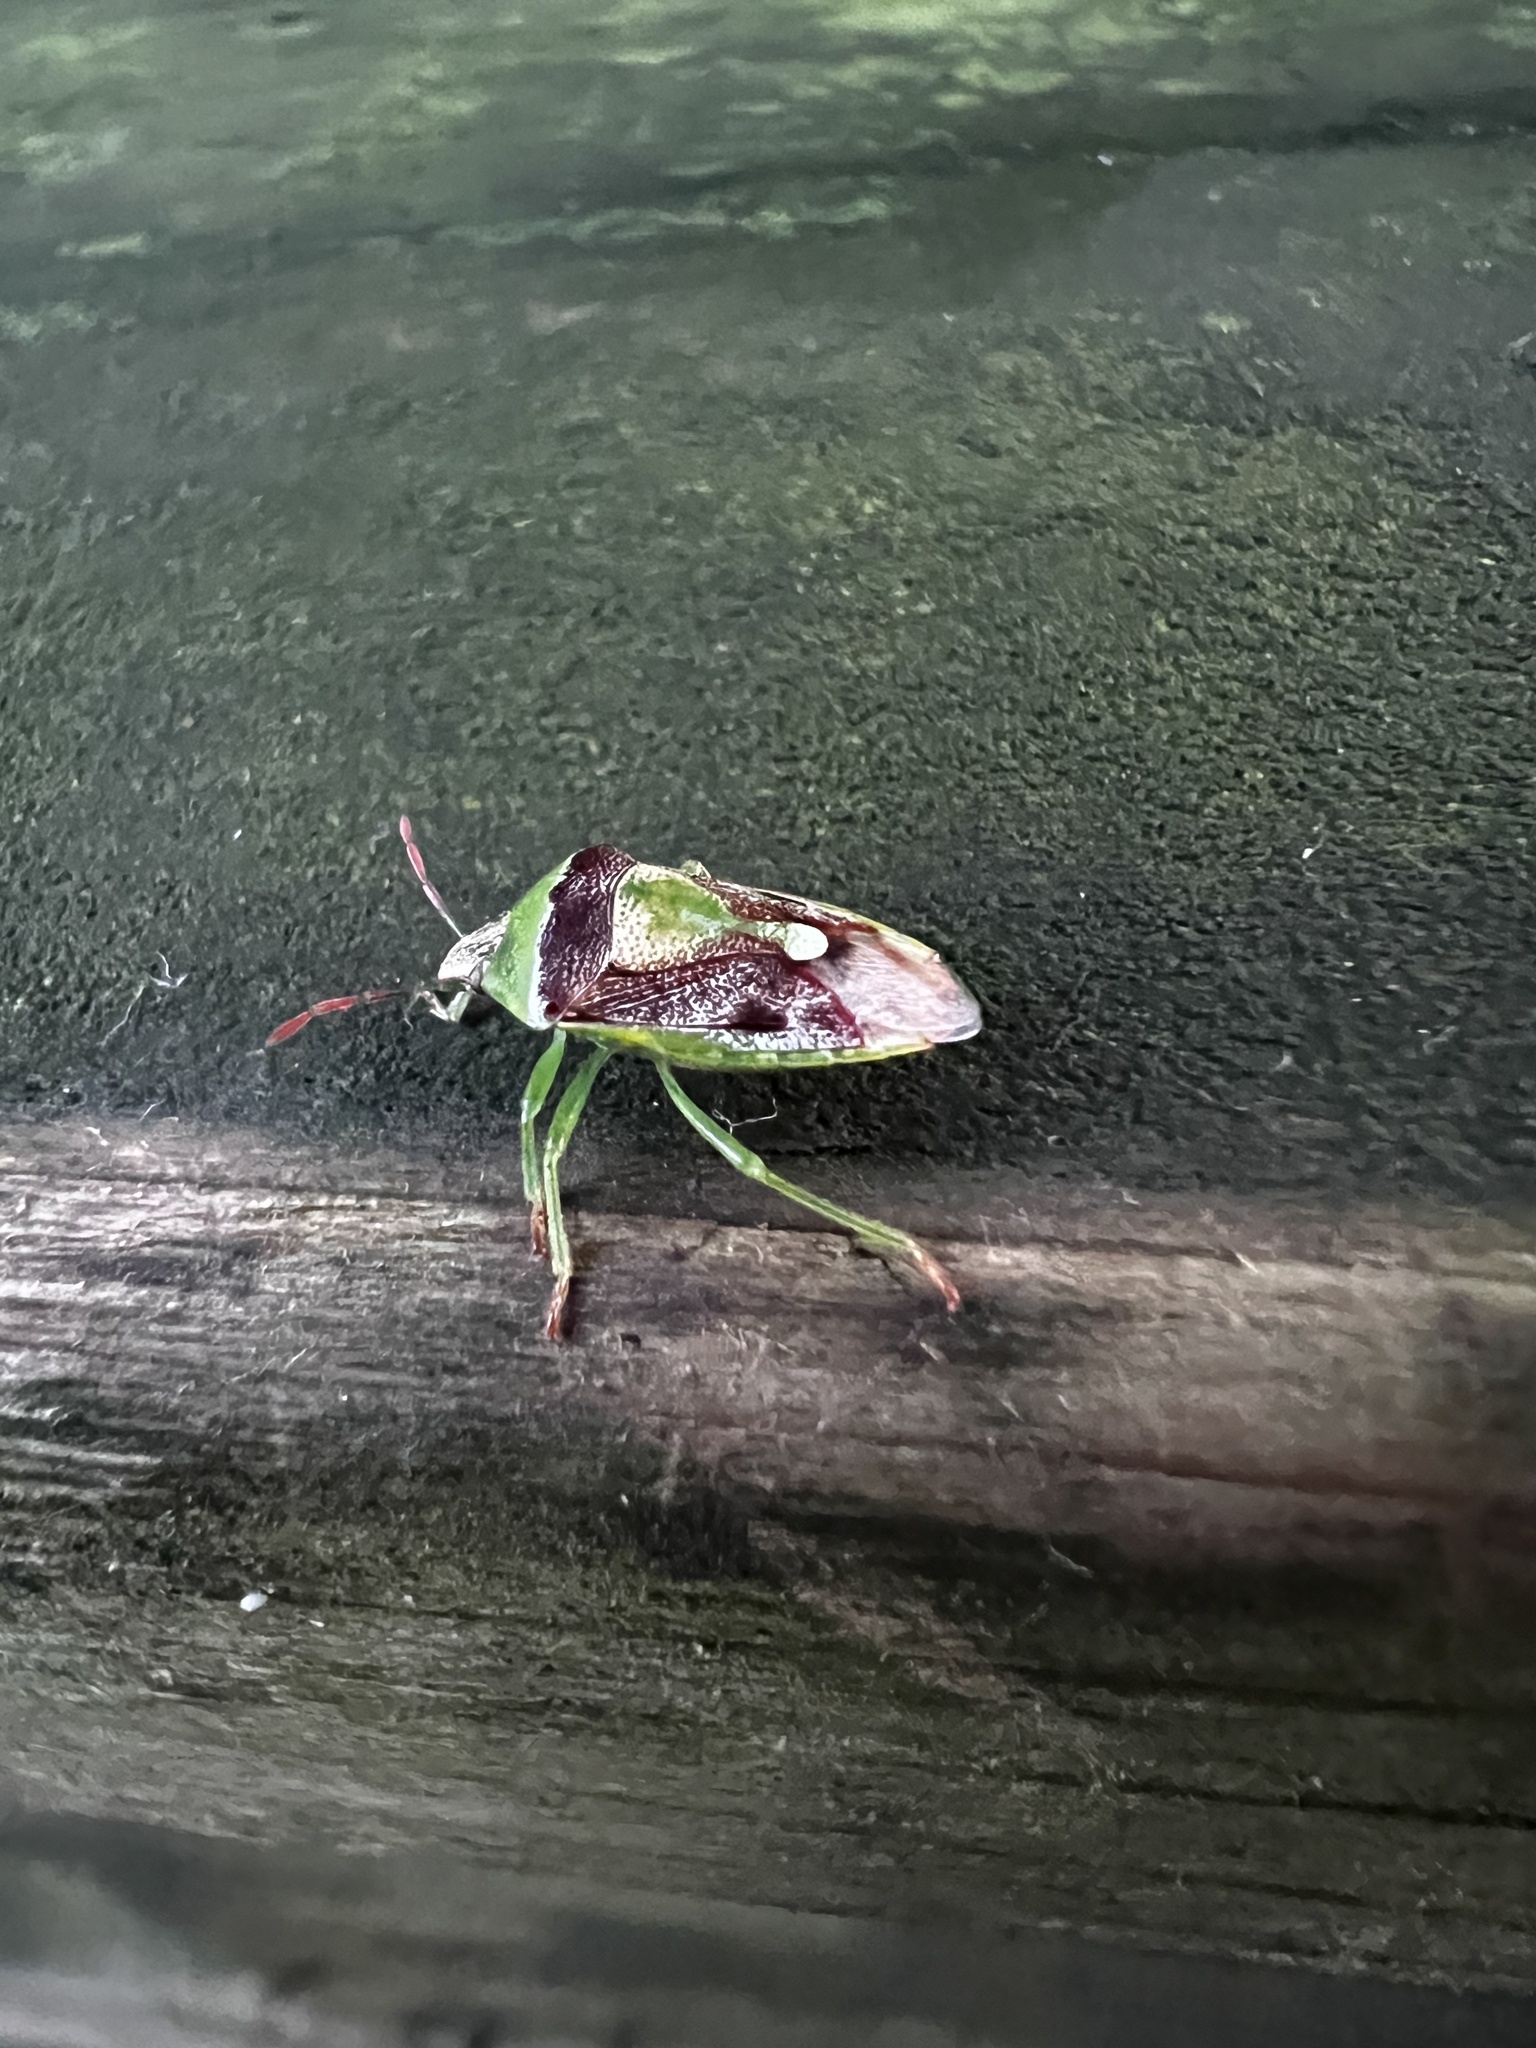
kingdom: Animalia
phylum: Arthropoda
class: Insecta
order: Hemiptera
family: Pentatomidae
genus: Banasa
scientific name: Banasa dimidiata
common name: Green burgundy stink bug
